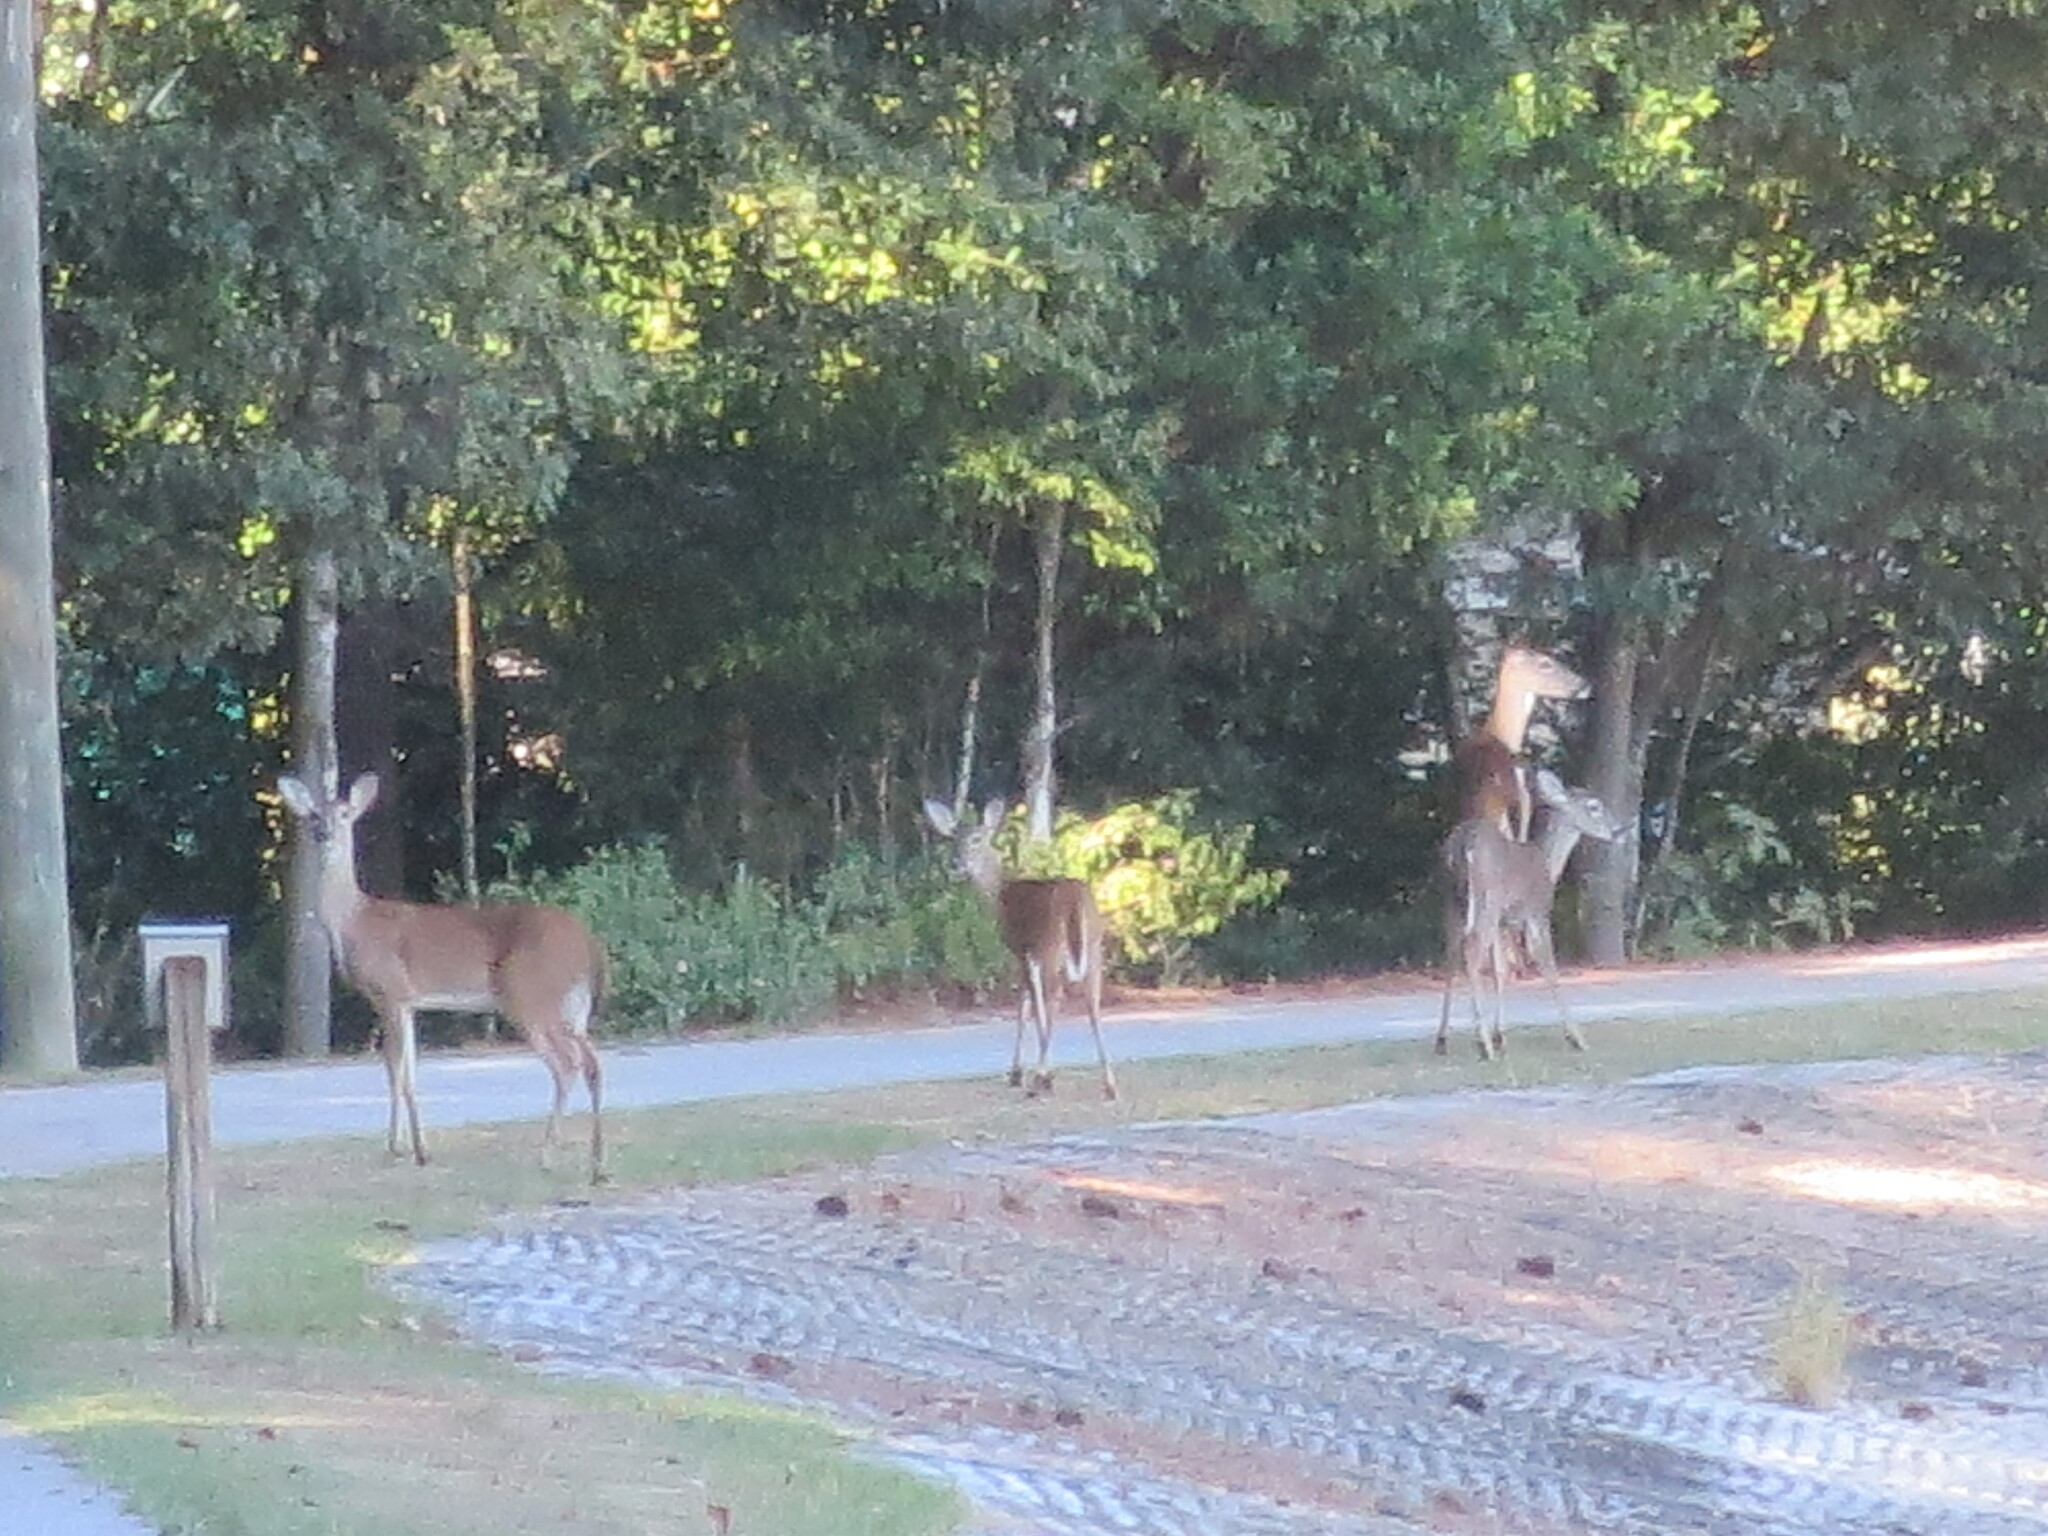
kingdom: Animalia
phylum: Chordata
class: Mammalia
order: Artiodactyla
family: Cervidae
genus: Odocoileus
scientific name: Odocoileus virginianus
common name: White-tailed deer
